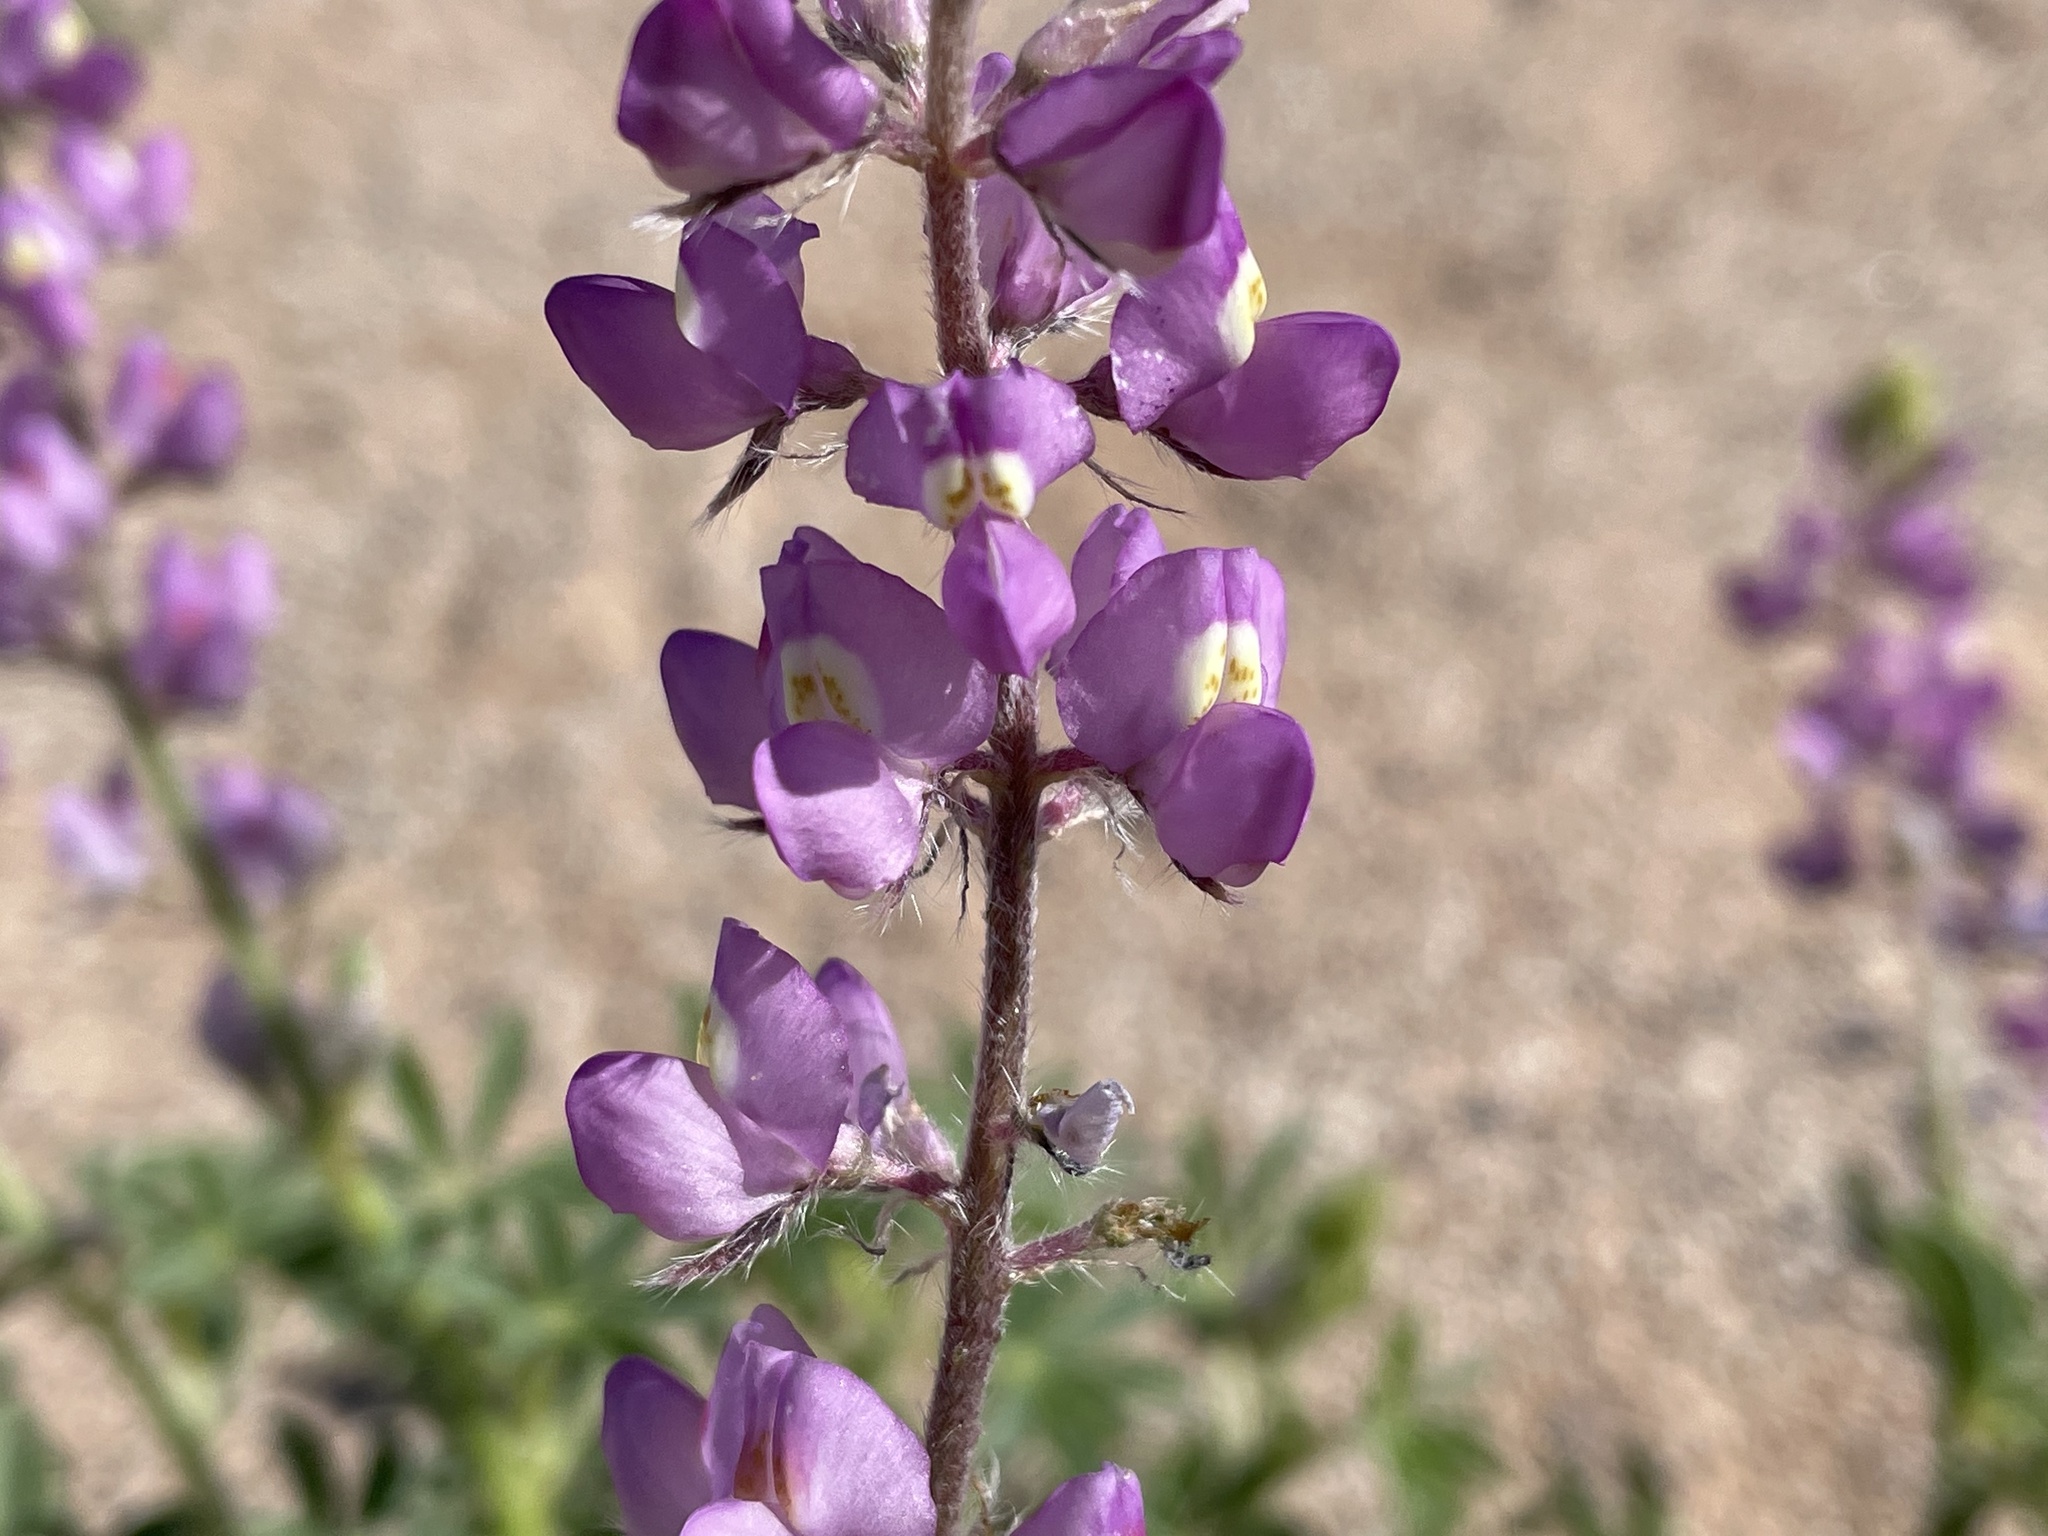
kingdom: Plantae
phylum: Tracheophyta
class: Magnoliopsida
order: Fabales
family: Fabaceae
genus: Lupinus
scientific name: Lupinus arizonicus
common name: Arizona lupine
